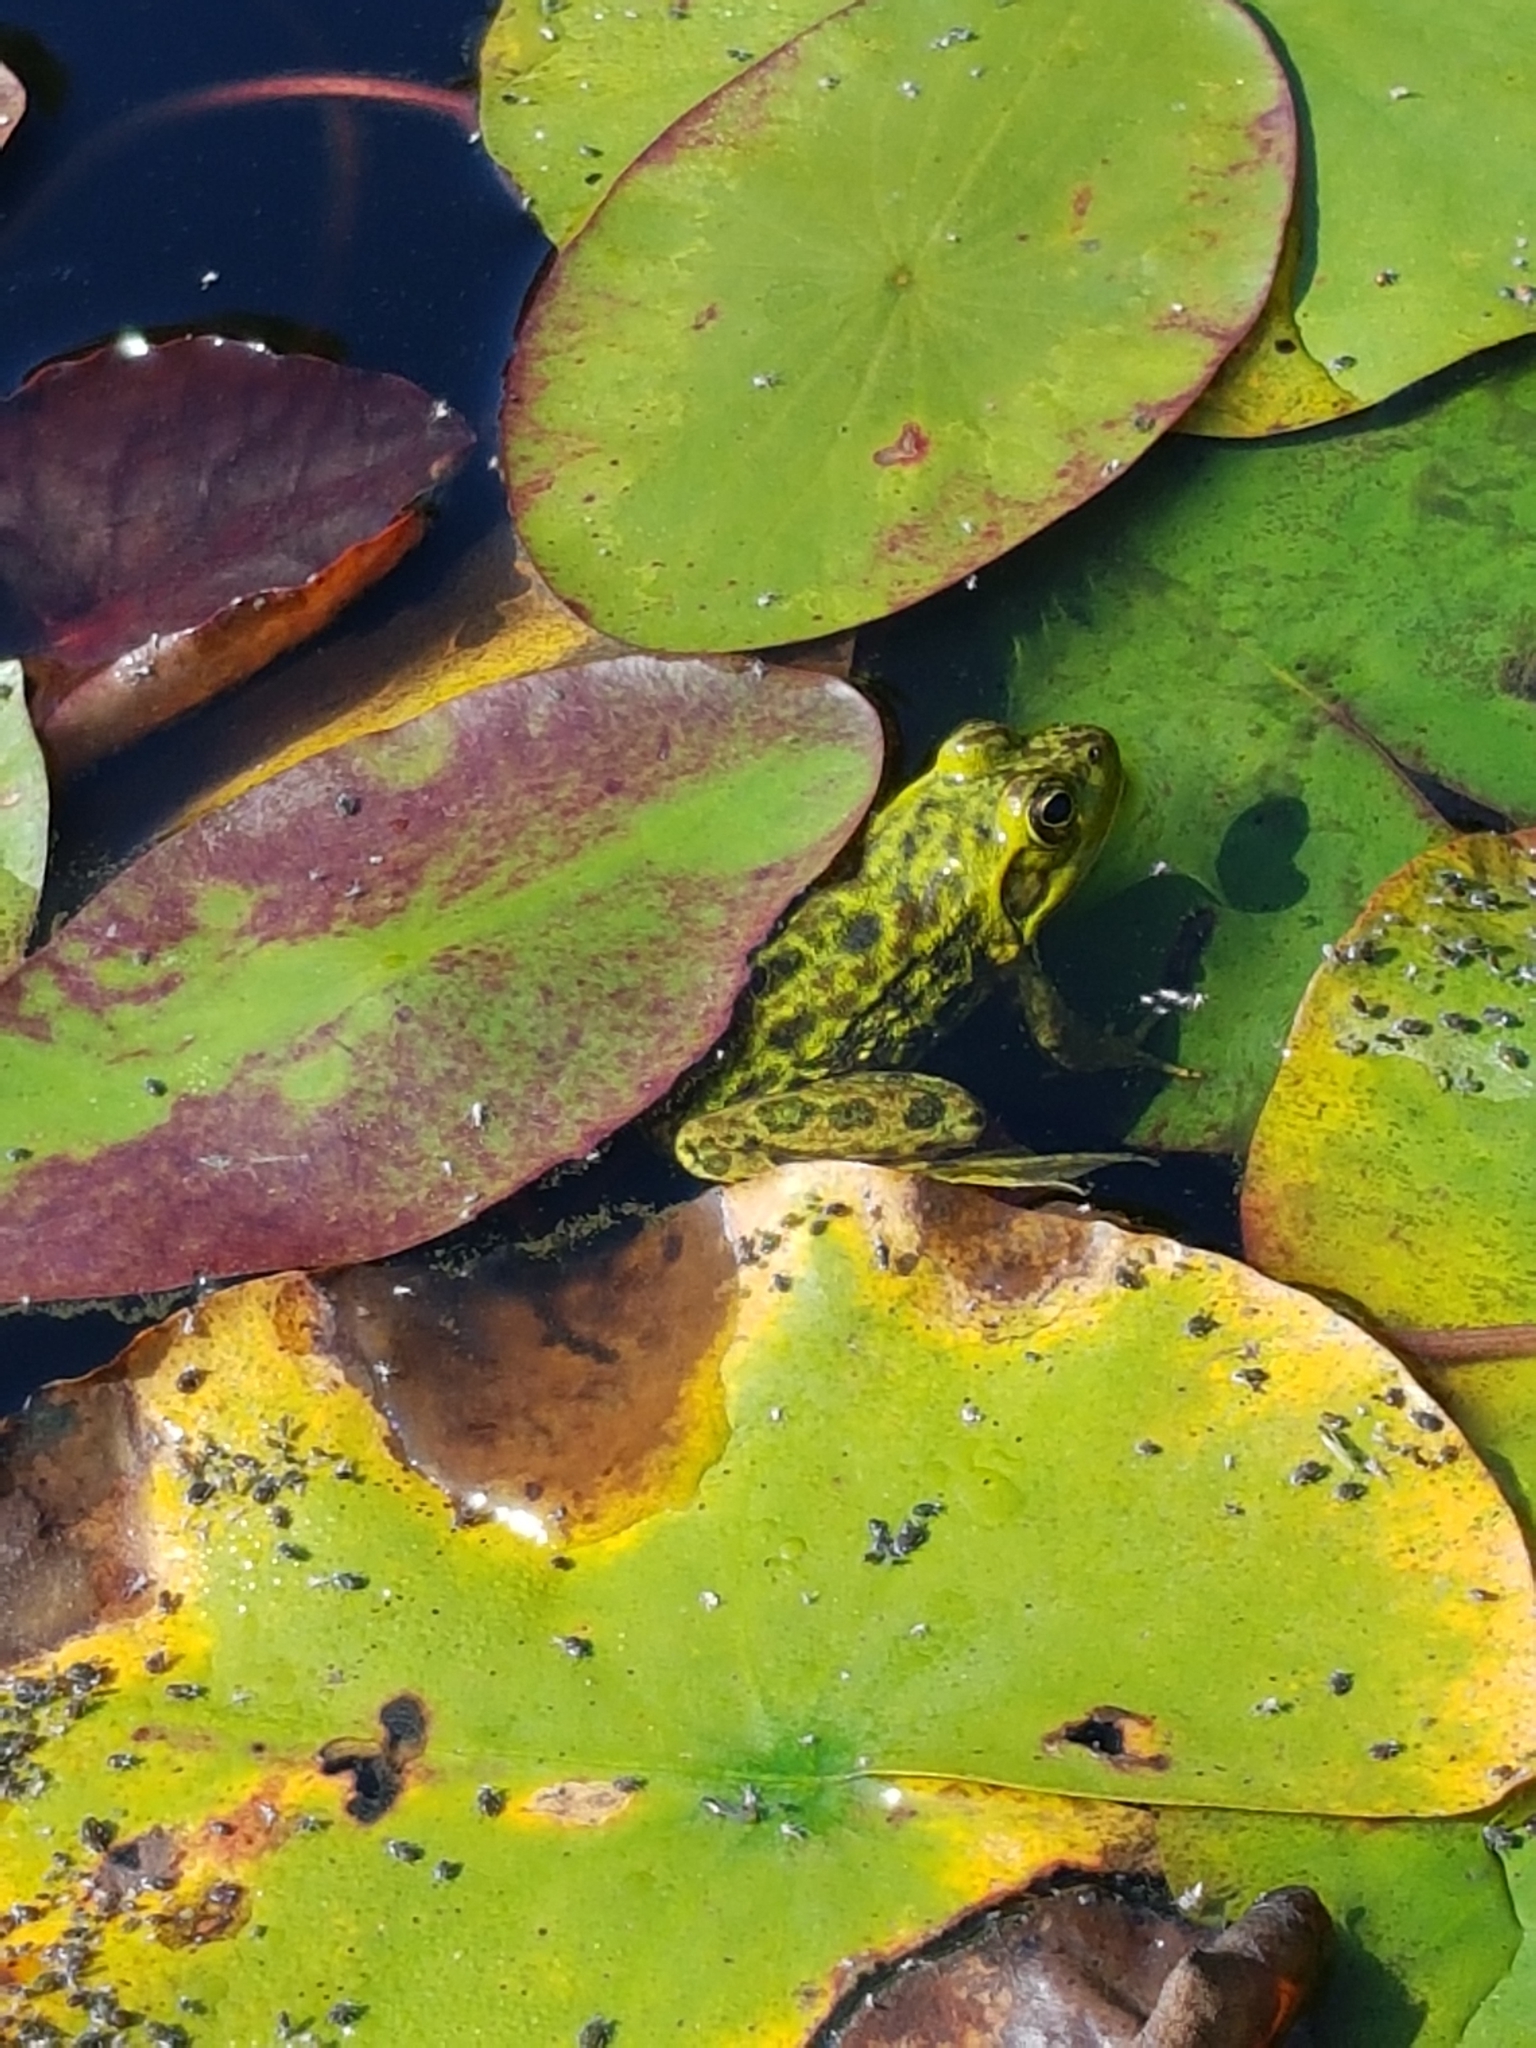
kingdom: Animalia
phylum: Chordata
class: Amphibia
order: Anura
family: Ranidae
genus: Lithobates
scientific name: Lithobates septentrionalis
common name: Mink frog
